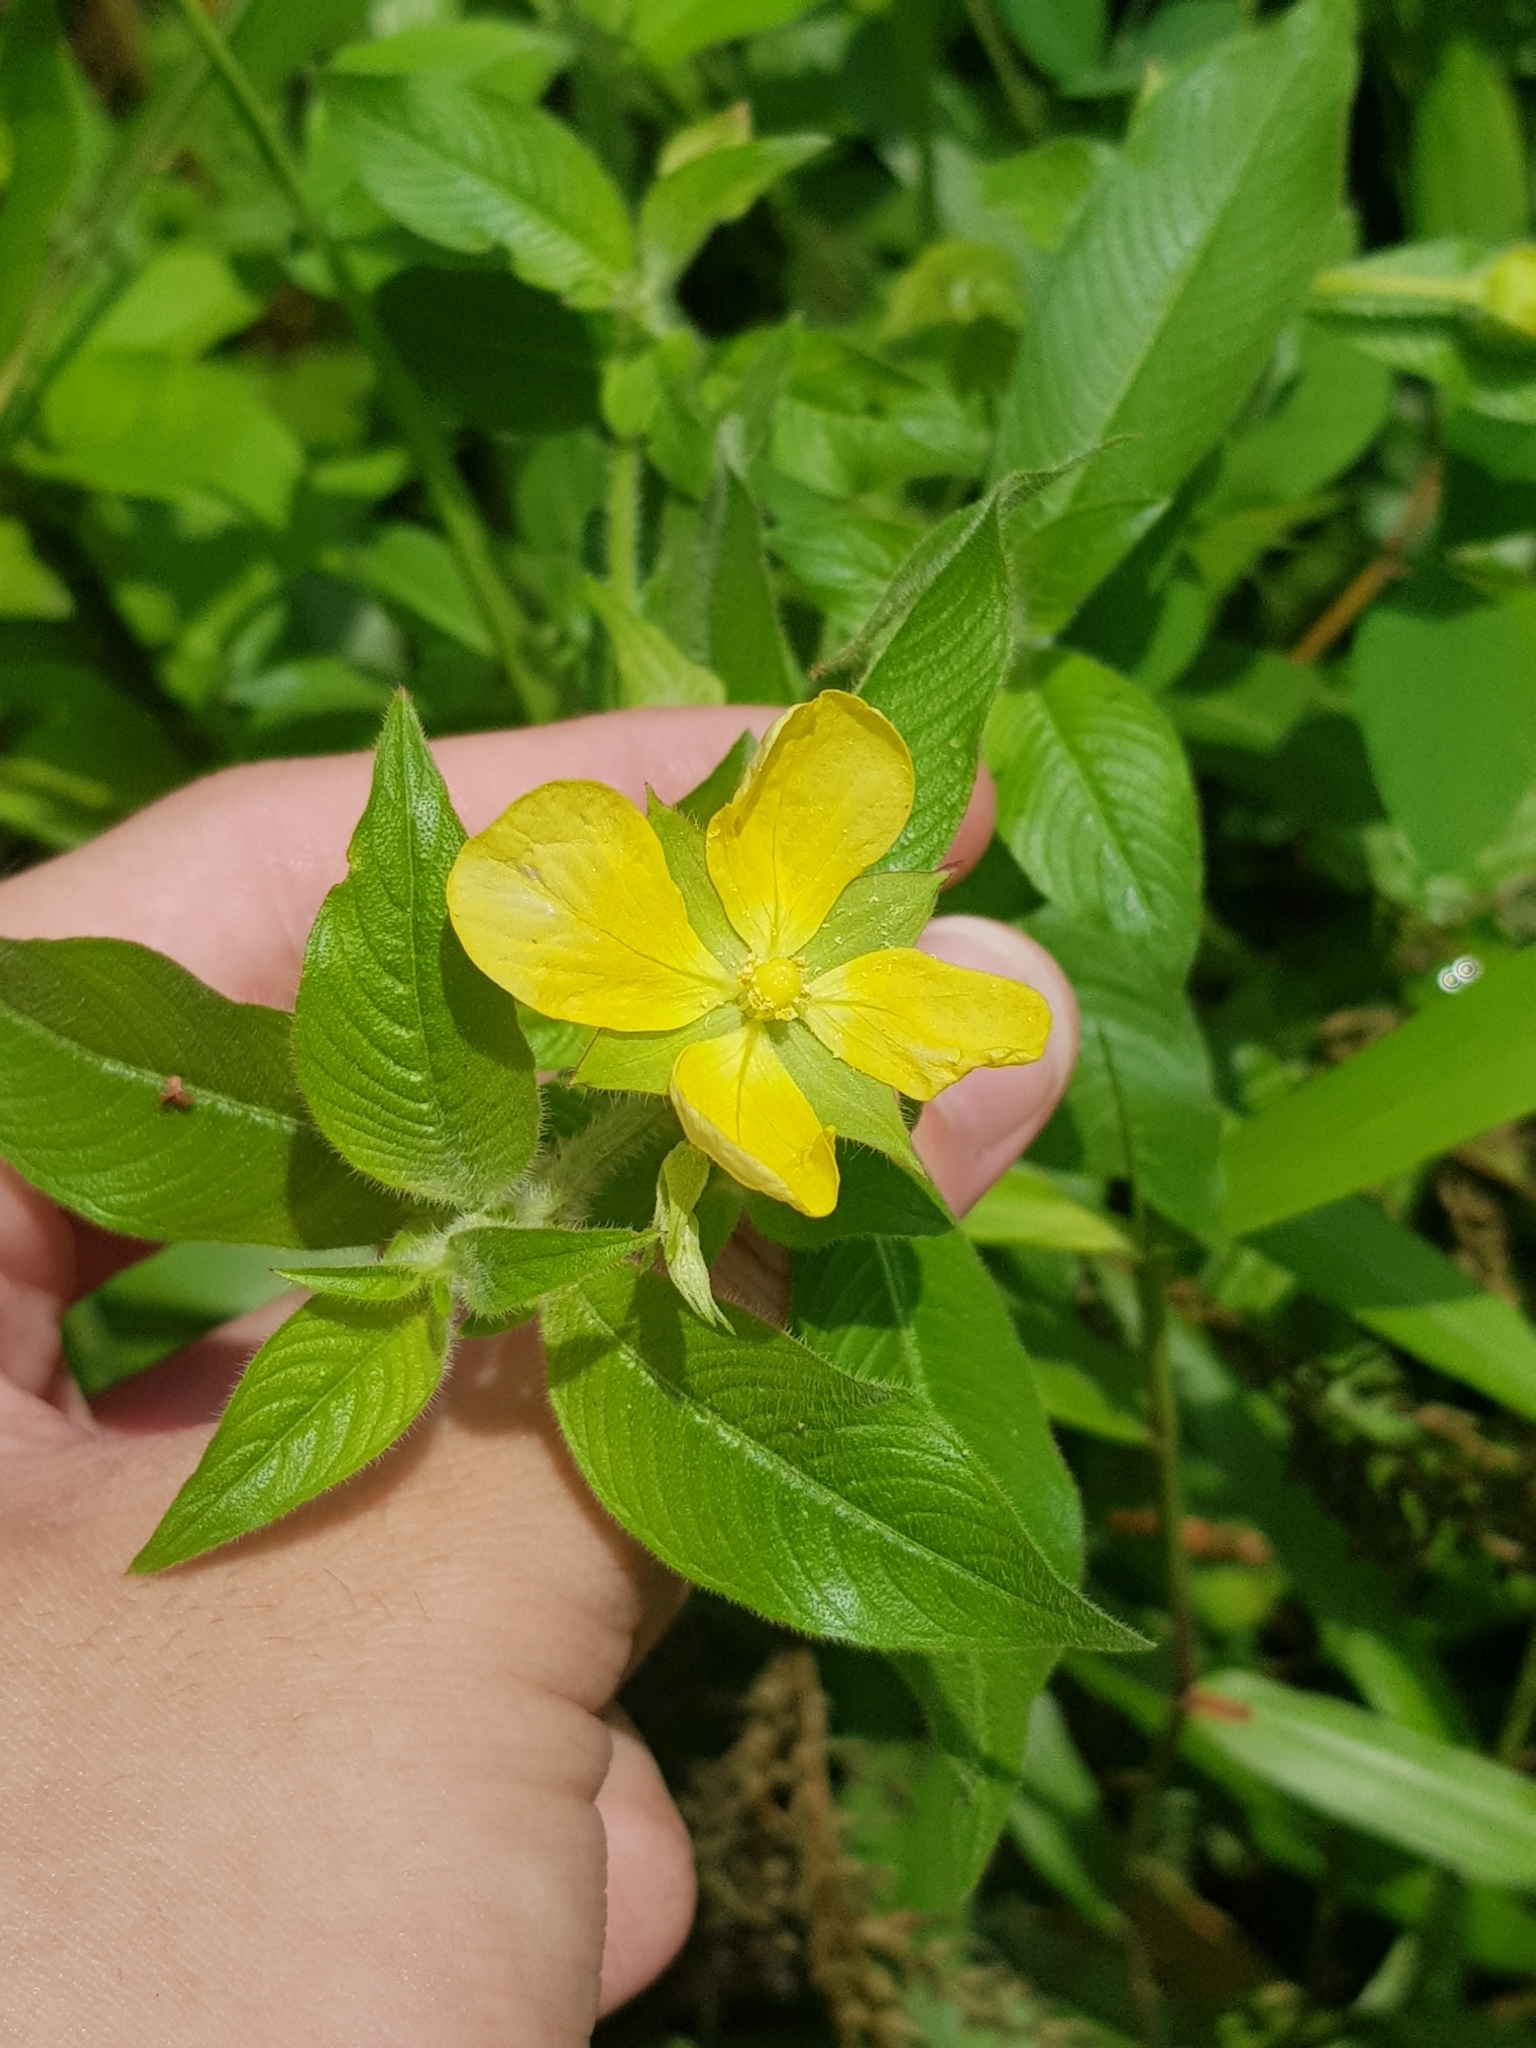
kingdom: Plantae
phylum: Tracheophyta
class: Magnoliopsida
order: Myrtales
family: Onagraceae
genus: Ludwigia
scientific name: Ludwigia octovalvis
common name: Water-primrose
